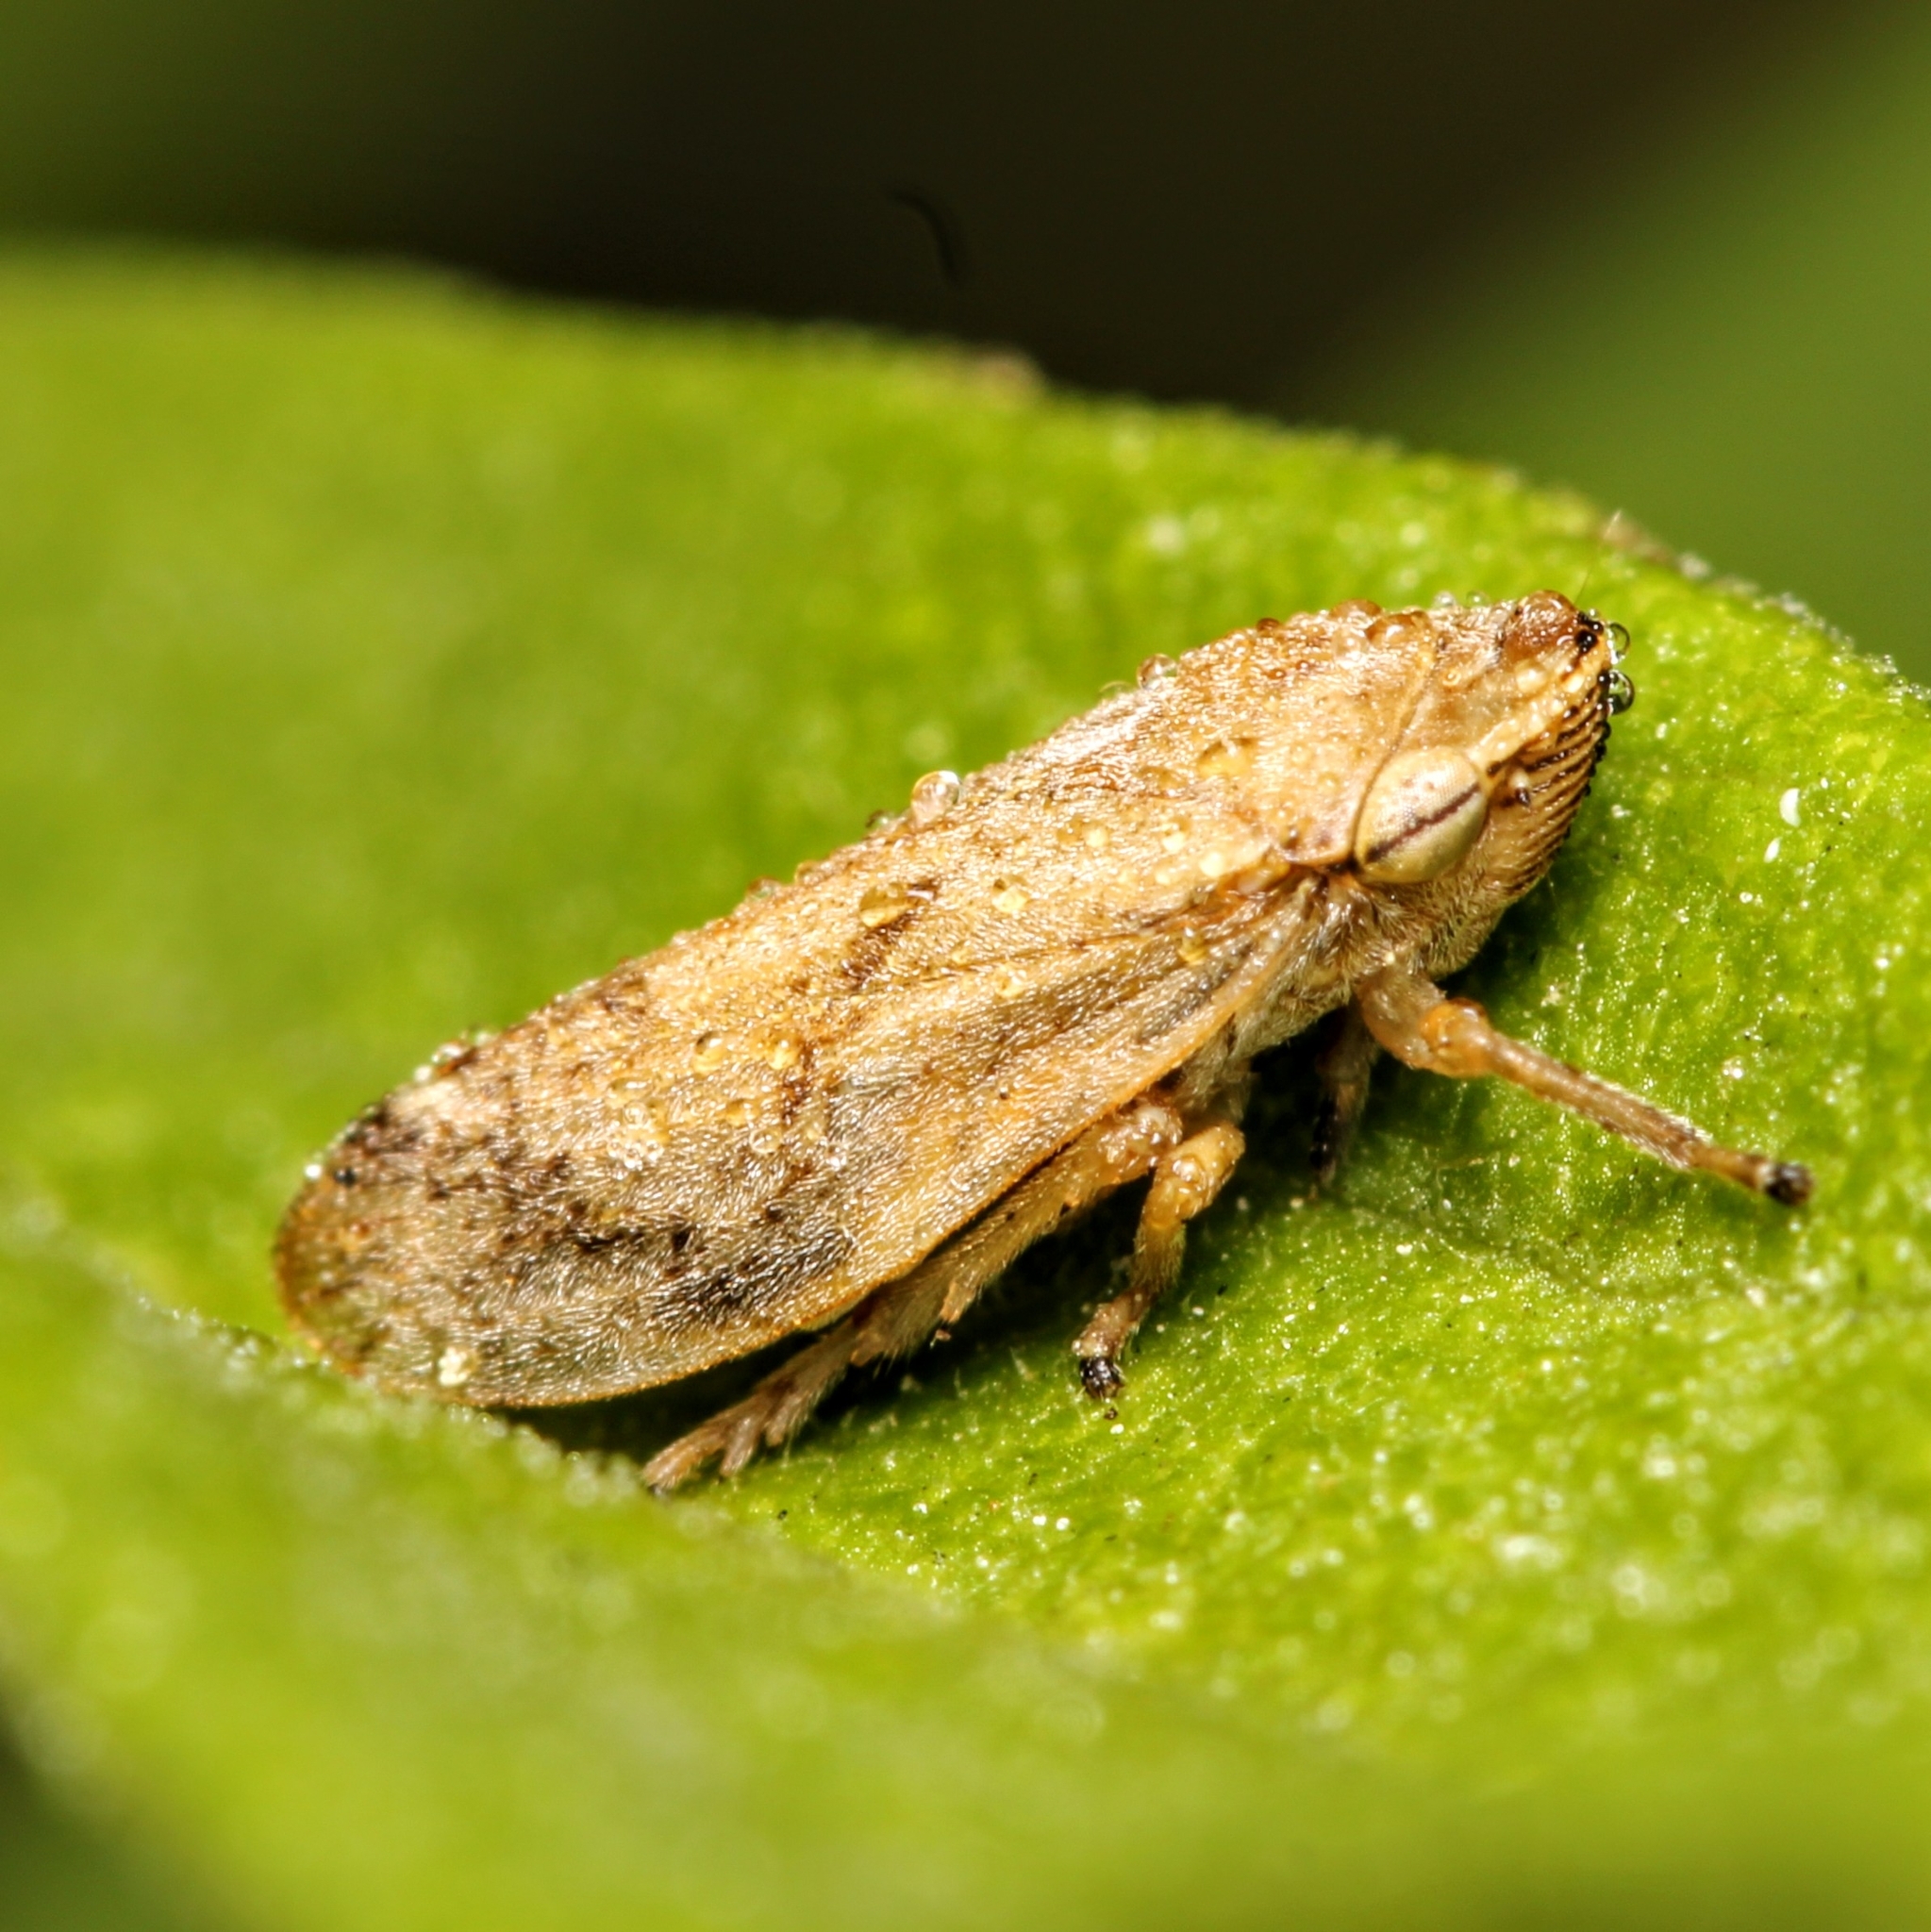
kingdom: Animalia
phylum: Arthropoda
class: Insecta
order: Hemiptera
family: Aphrophoridae
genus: Philaenus
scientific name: Philaenus spumarius
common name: Meadow spittlebug
